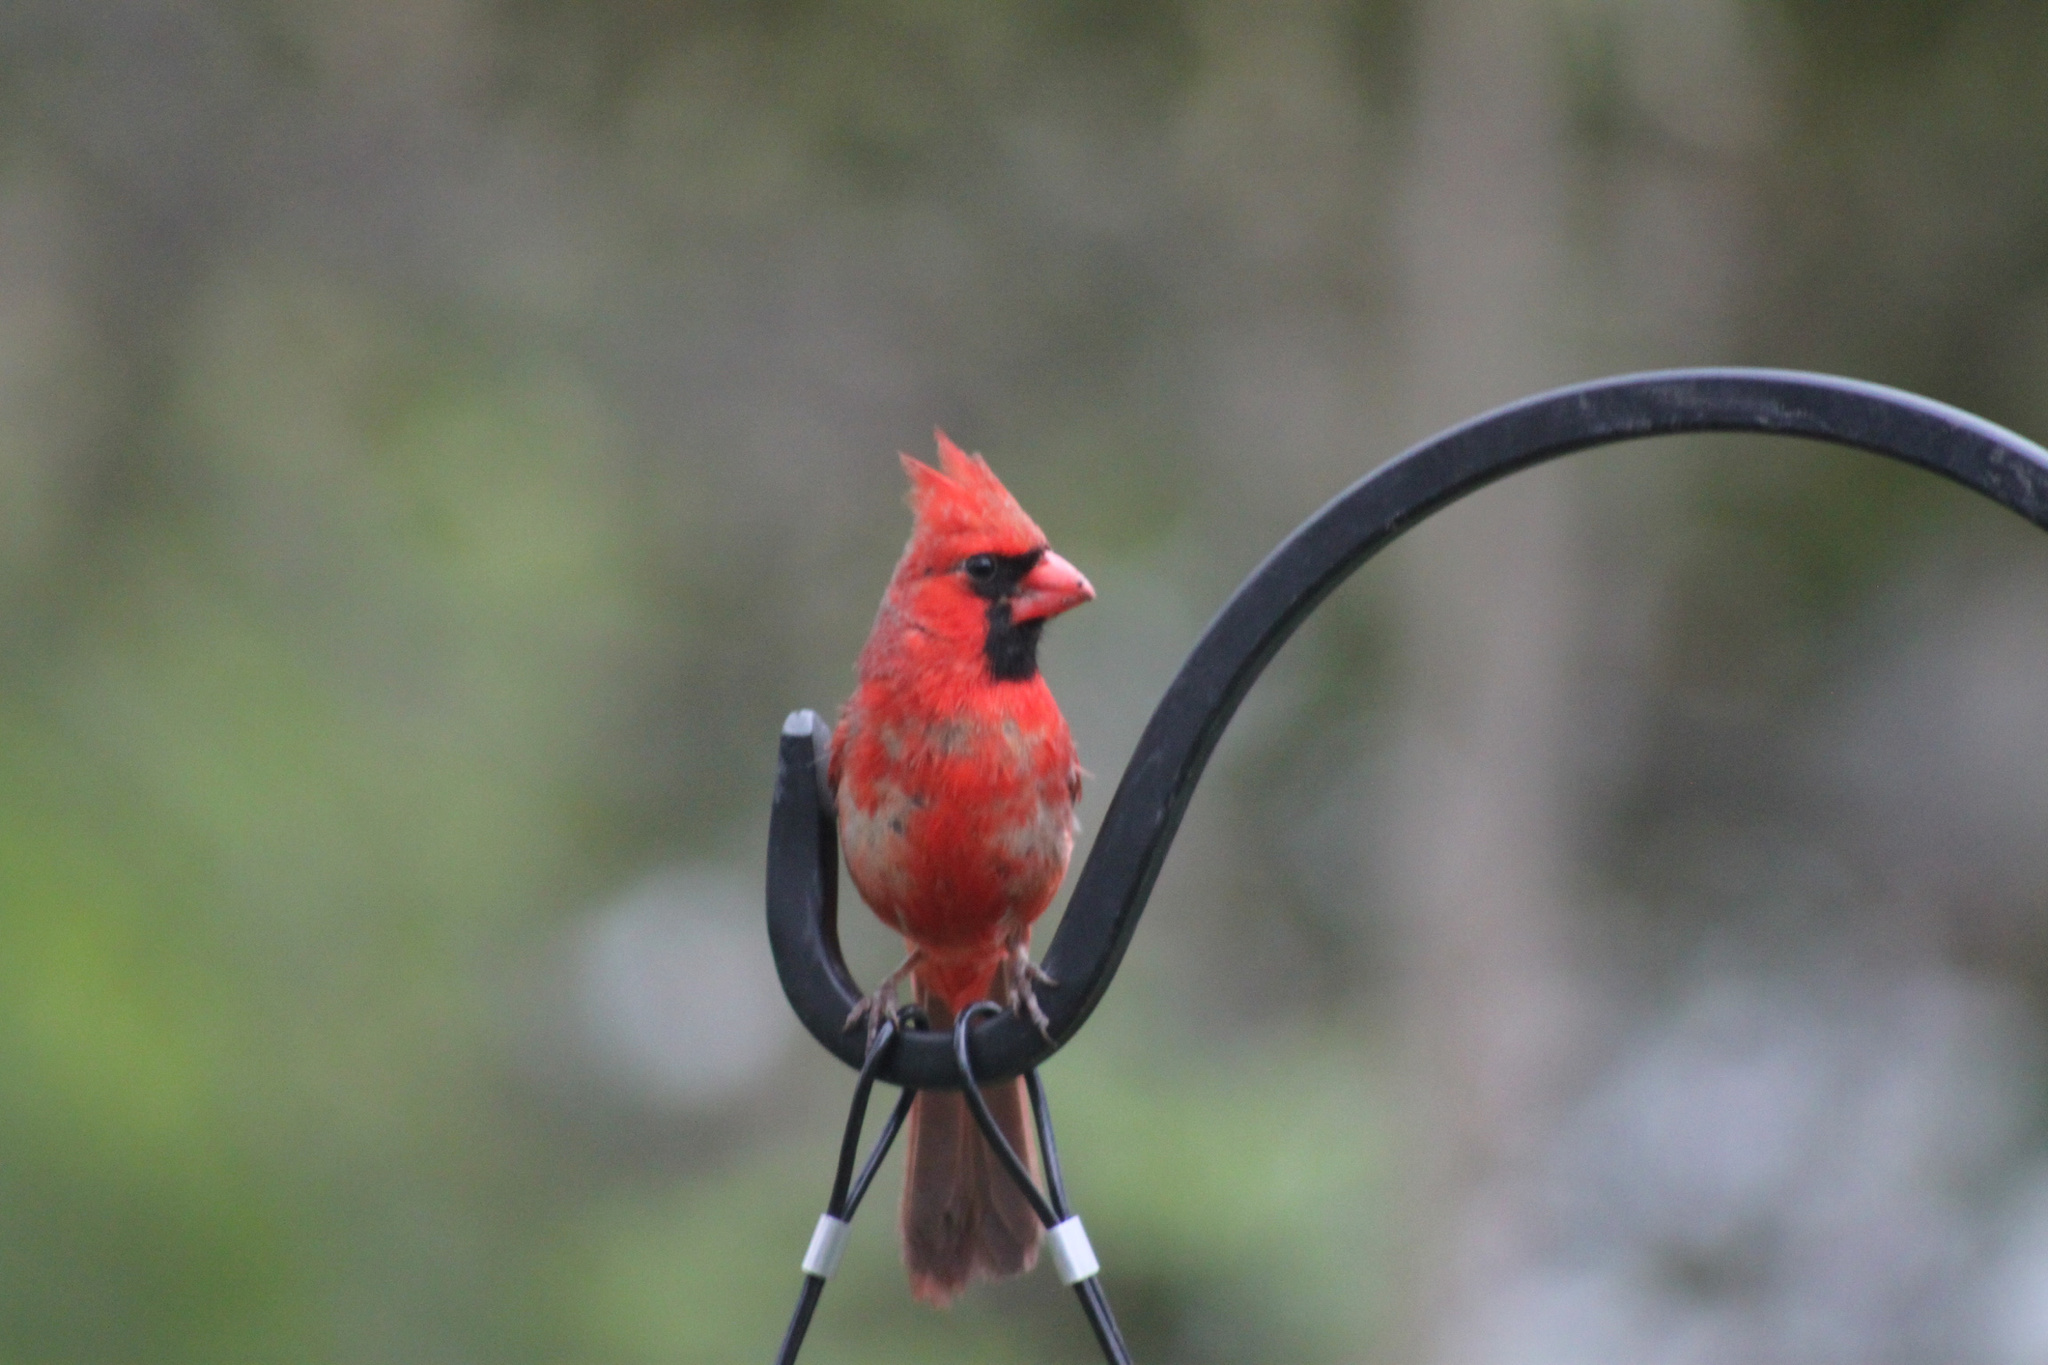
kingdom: Animalia
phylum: Chordata
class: Aves
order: Passeriformes
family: Cardinalidae
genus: Cardinalis
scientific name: Cardinalis cardinalis
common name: Northern cardinal
